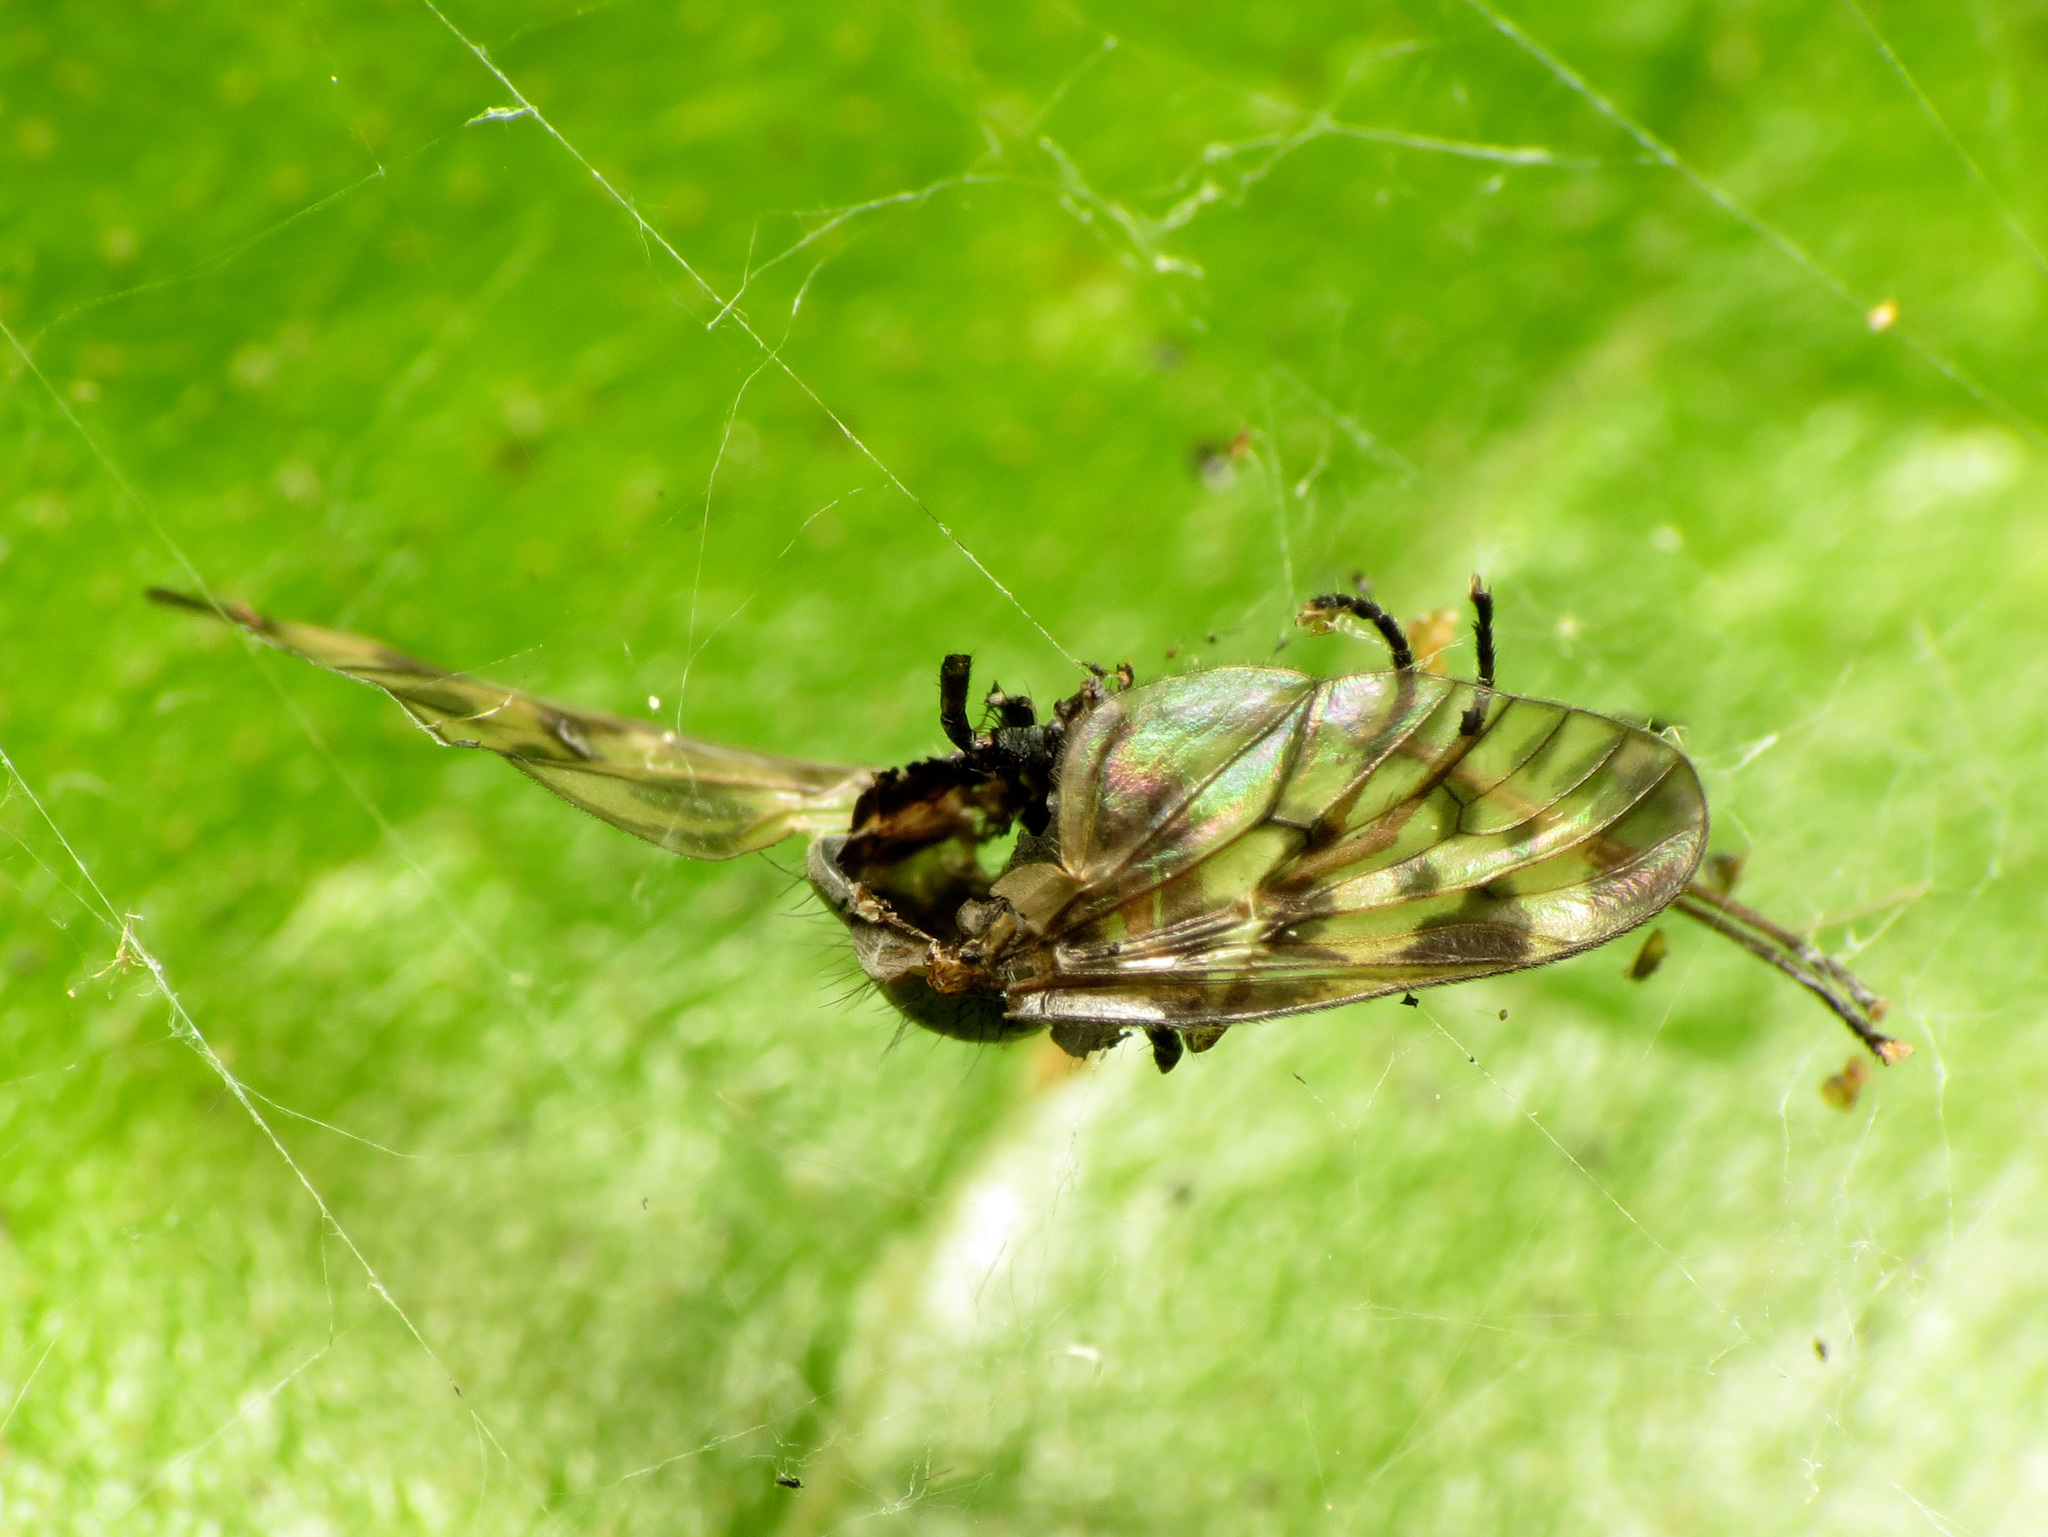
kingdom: Animalia
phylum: Arthropoda
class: Insecta
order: Diptera
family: Rhagionidae
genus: Rhagio
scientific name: Rhagio punctipennis
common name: Lesser variegated snipe fly
